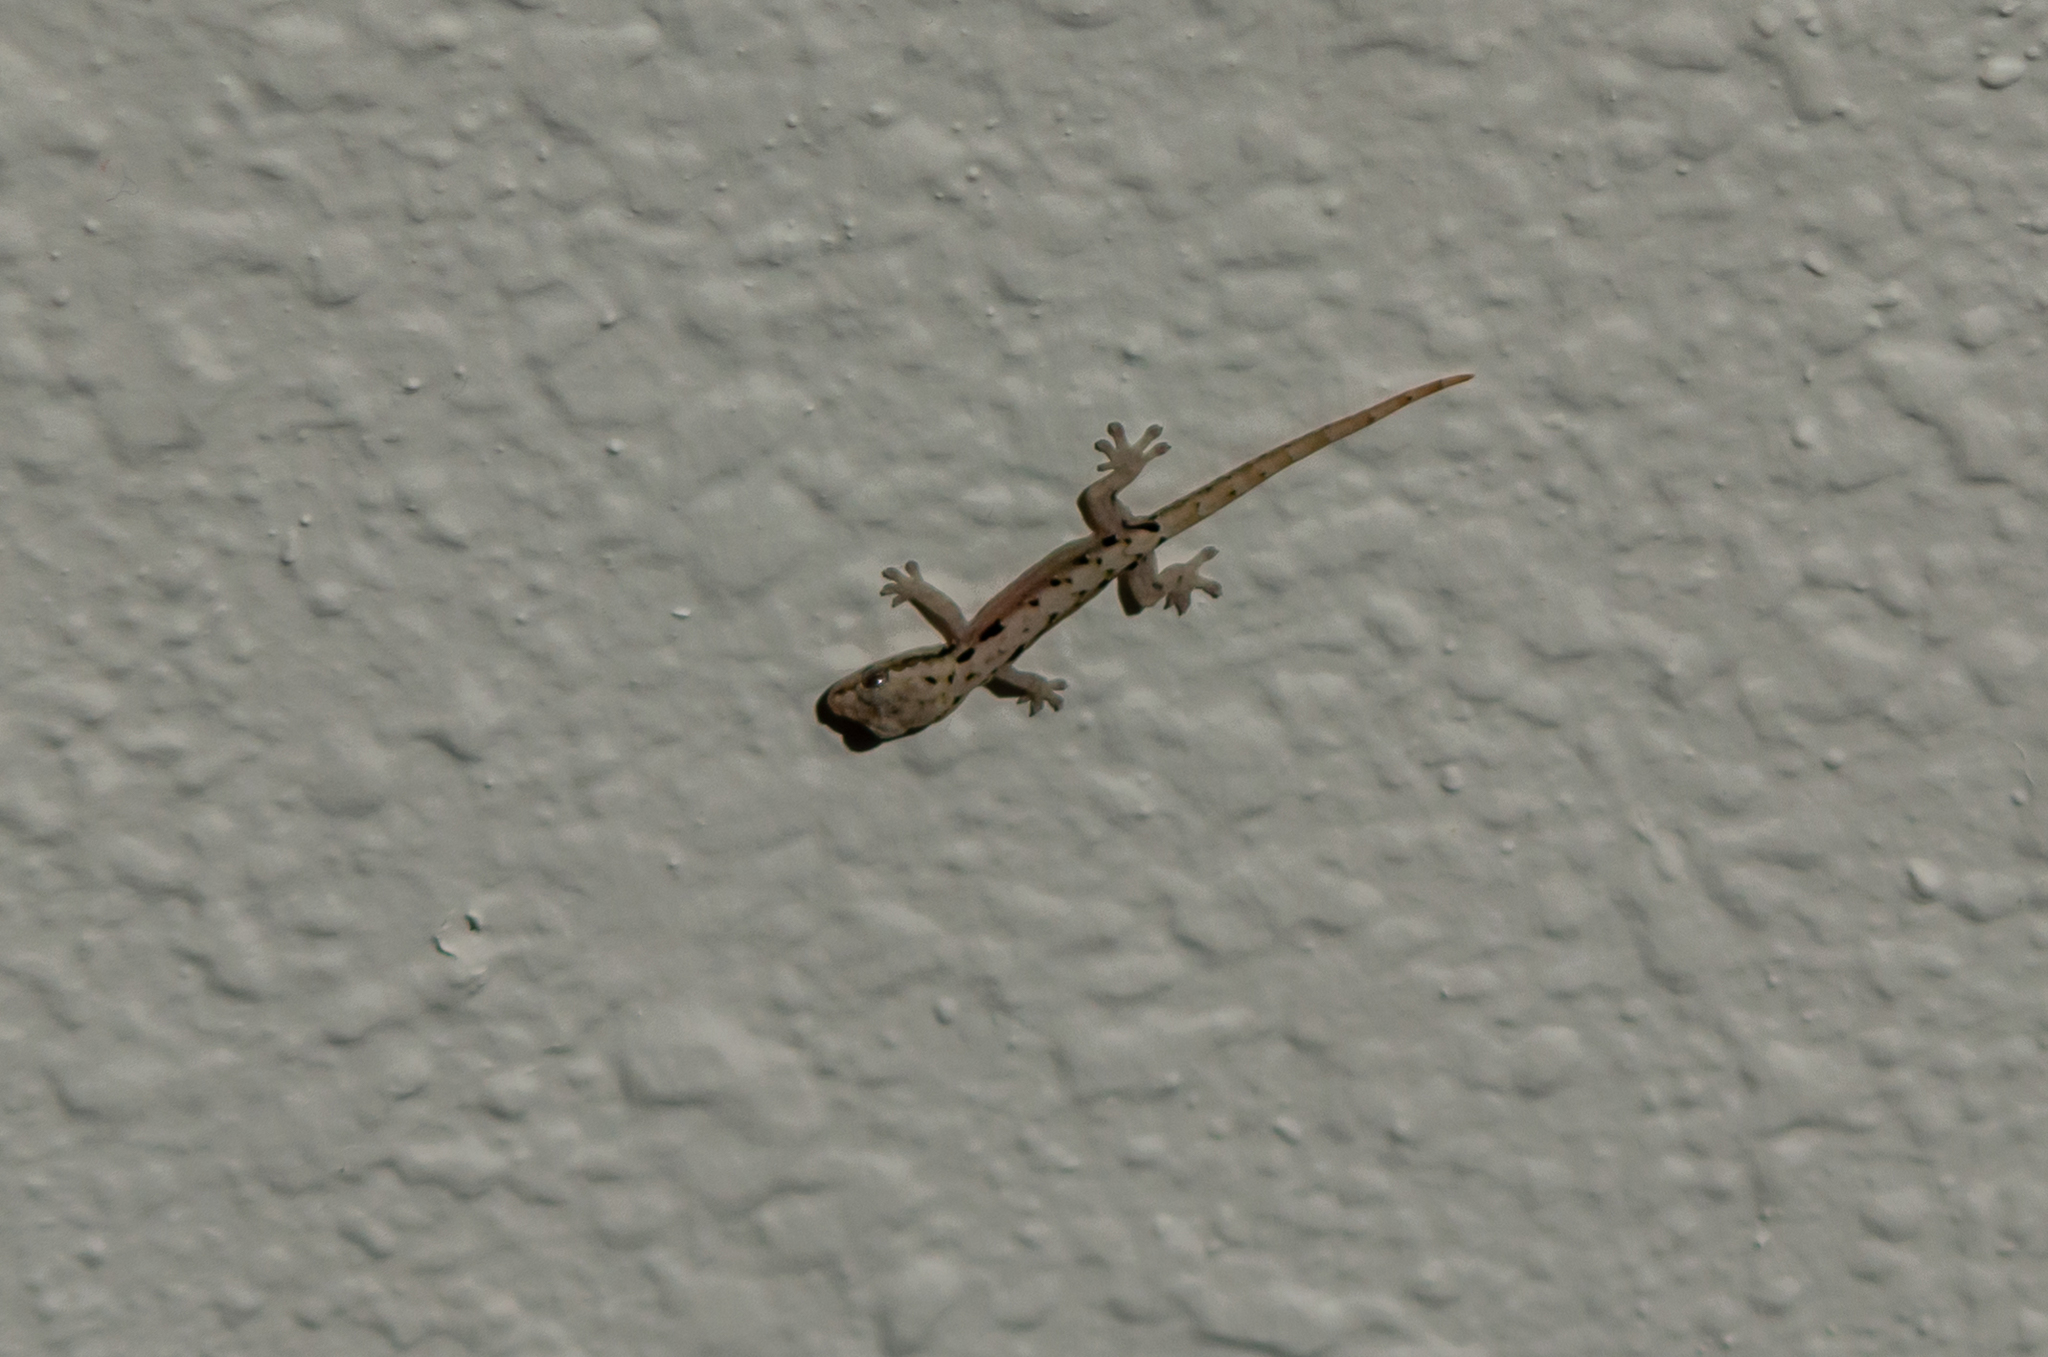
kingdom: Animalia
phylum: Chordata
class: Squamata
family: Gekkonidae
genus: Lepidodactylus
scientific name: Lepidodactylus lugubris
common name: Mourning gecko
